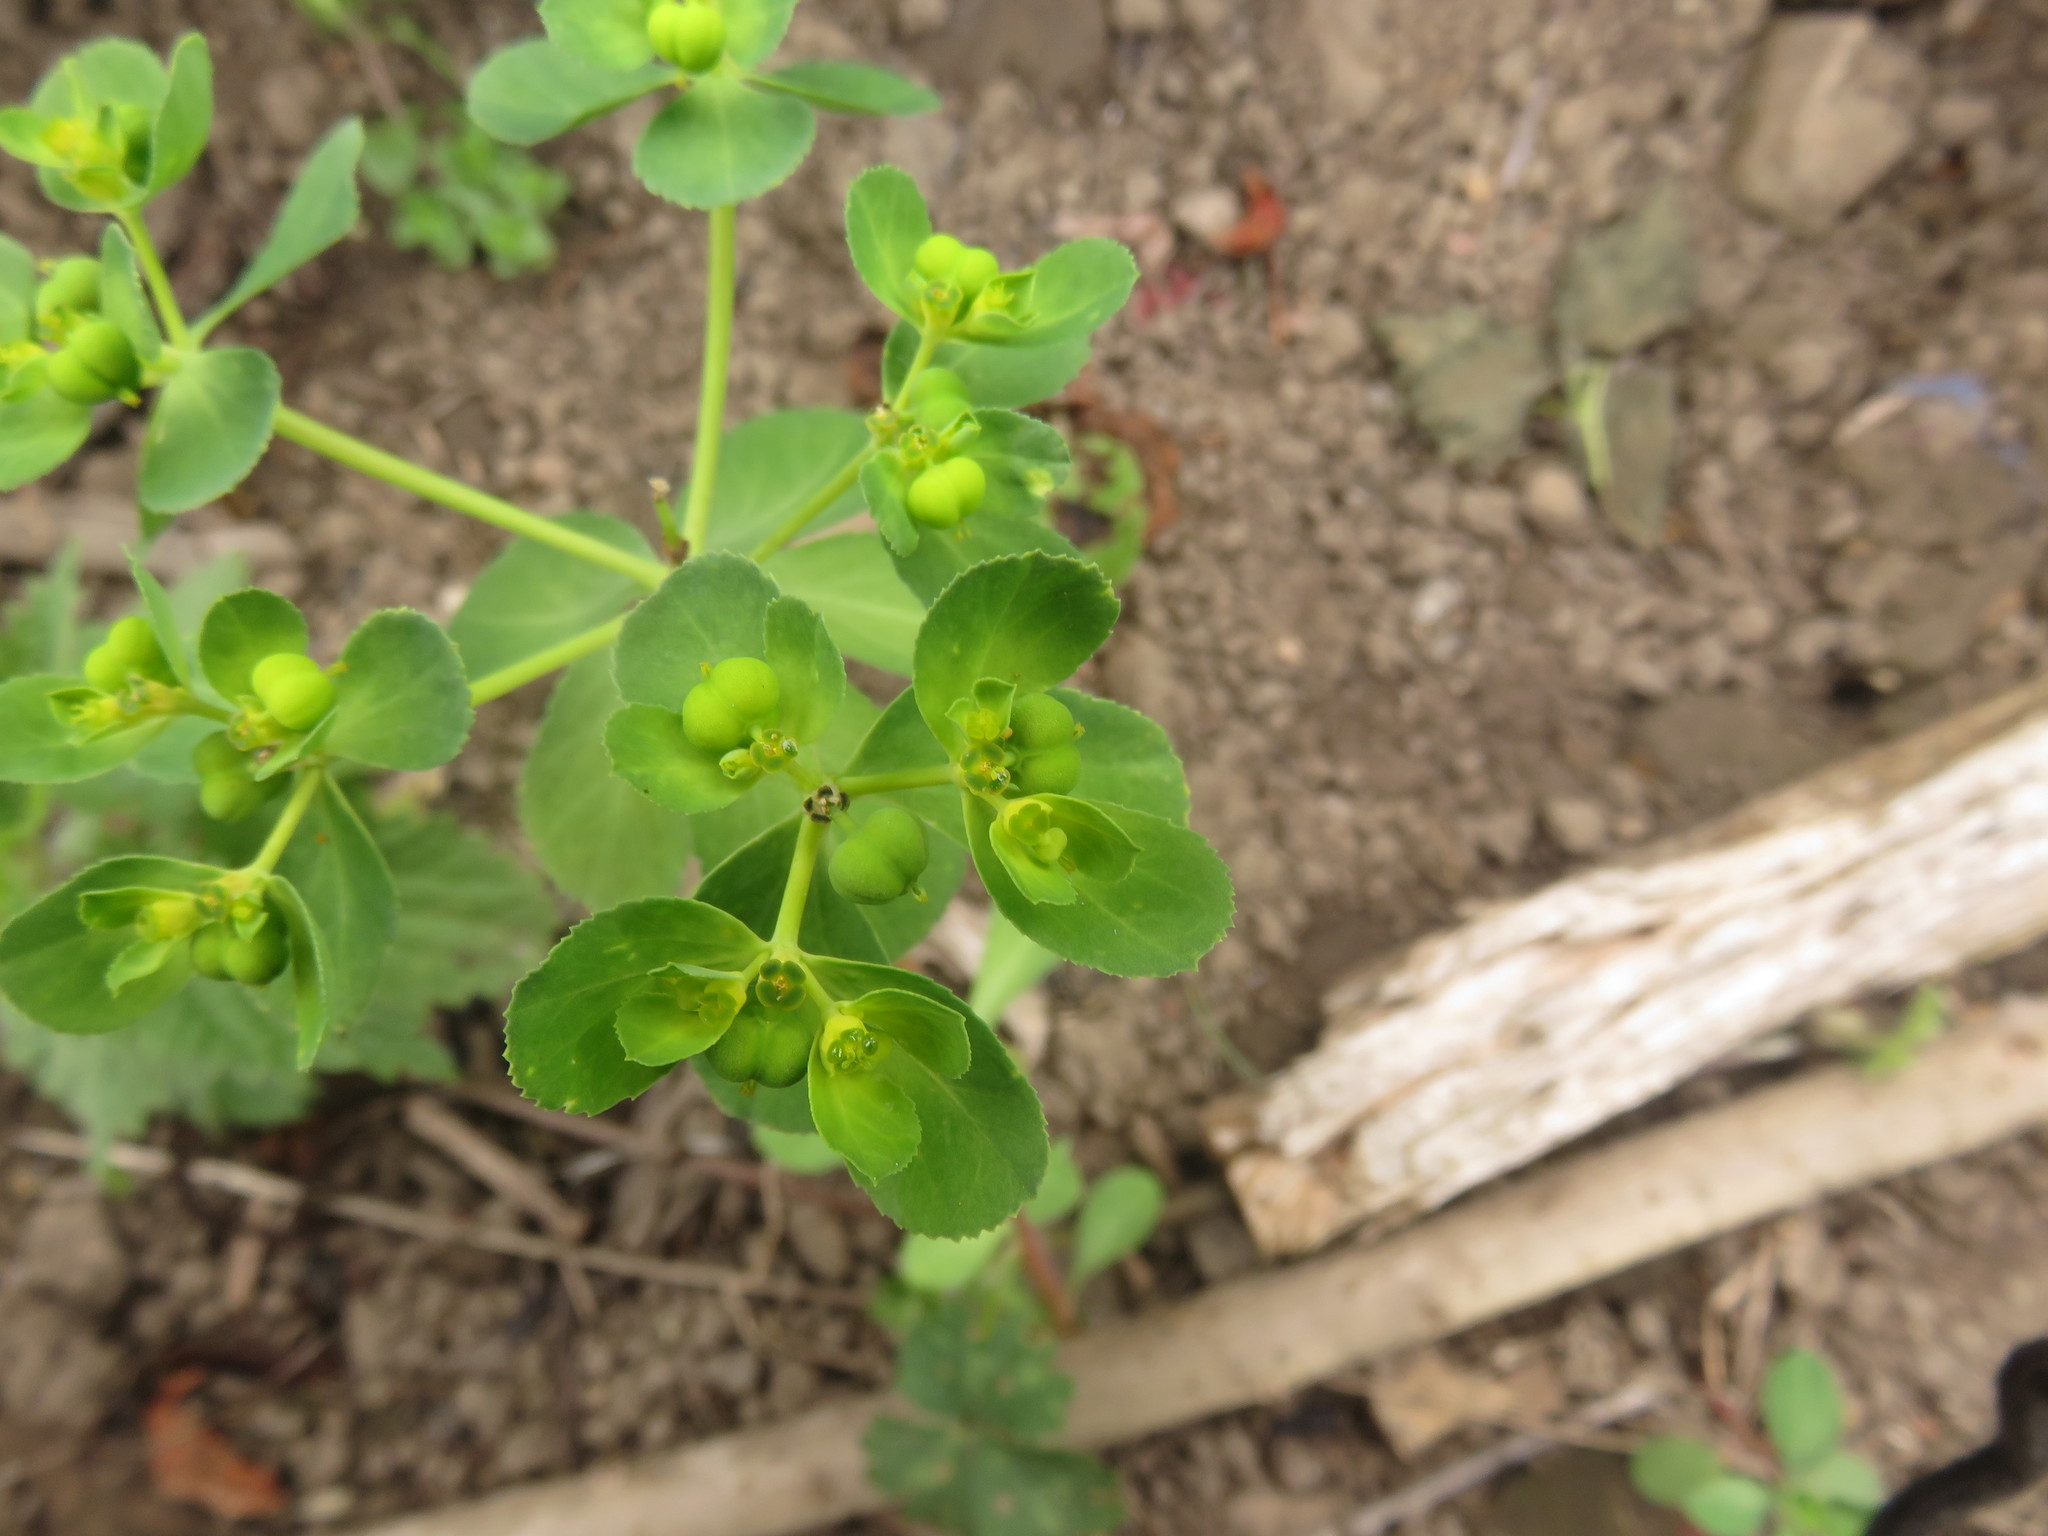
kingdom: Plantae
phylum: Tracheophyta
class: Magnoliopsida
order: Malpighiales
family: Euphorbiaceae
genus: Euphorbia
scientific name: Euphorbia helioscopia
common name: Sun spurge
